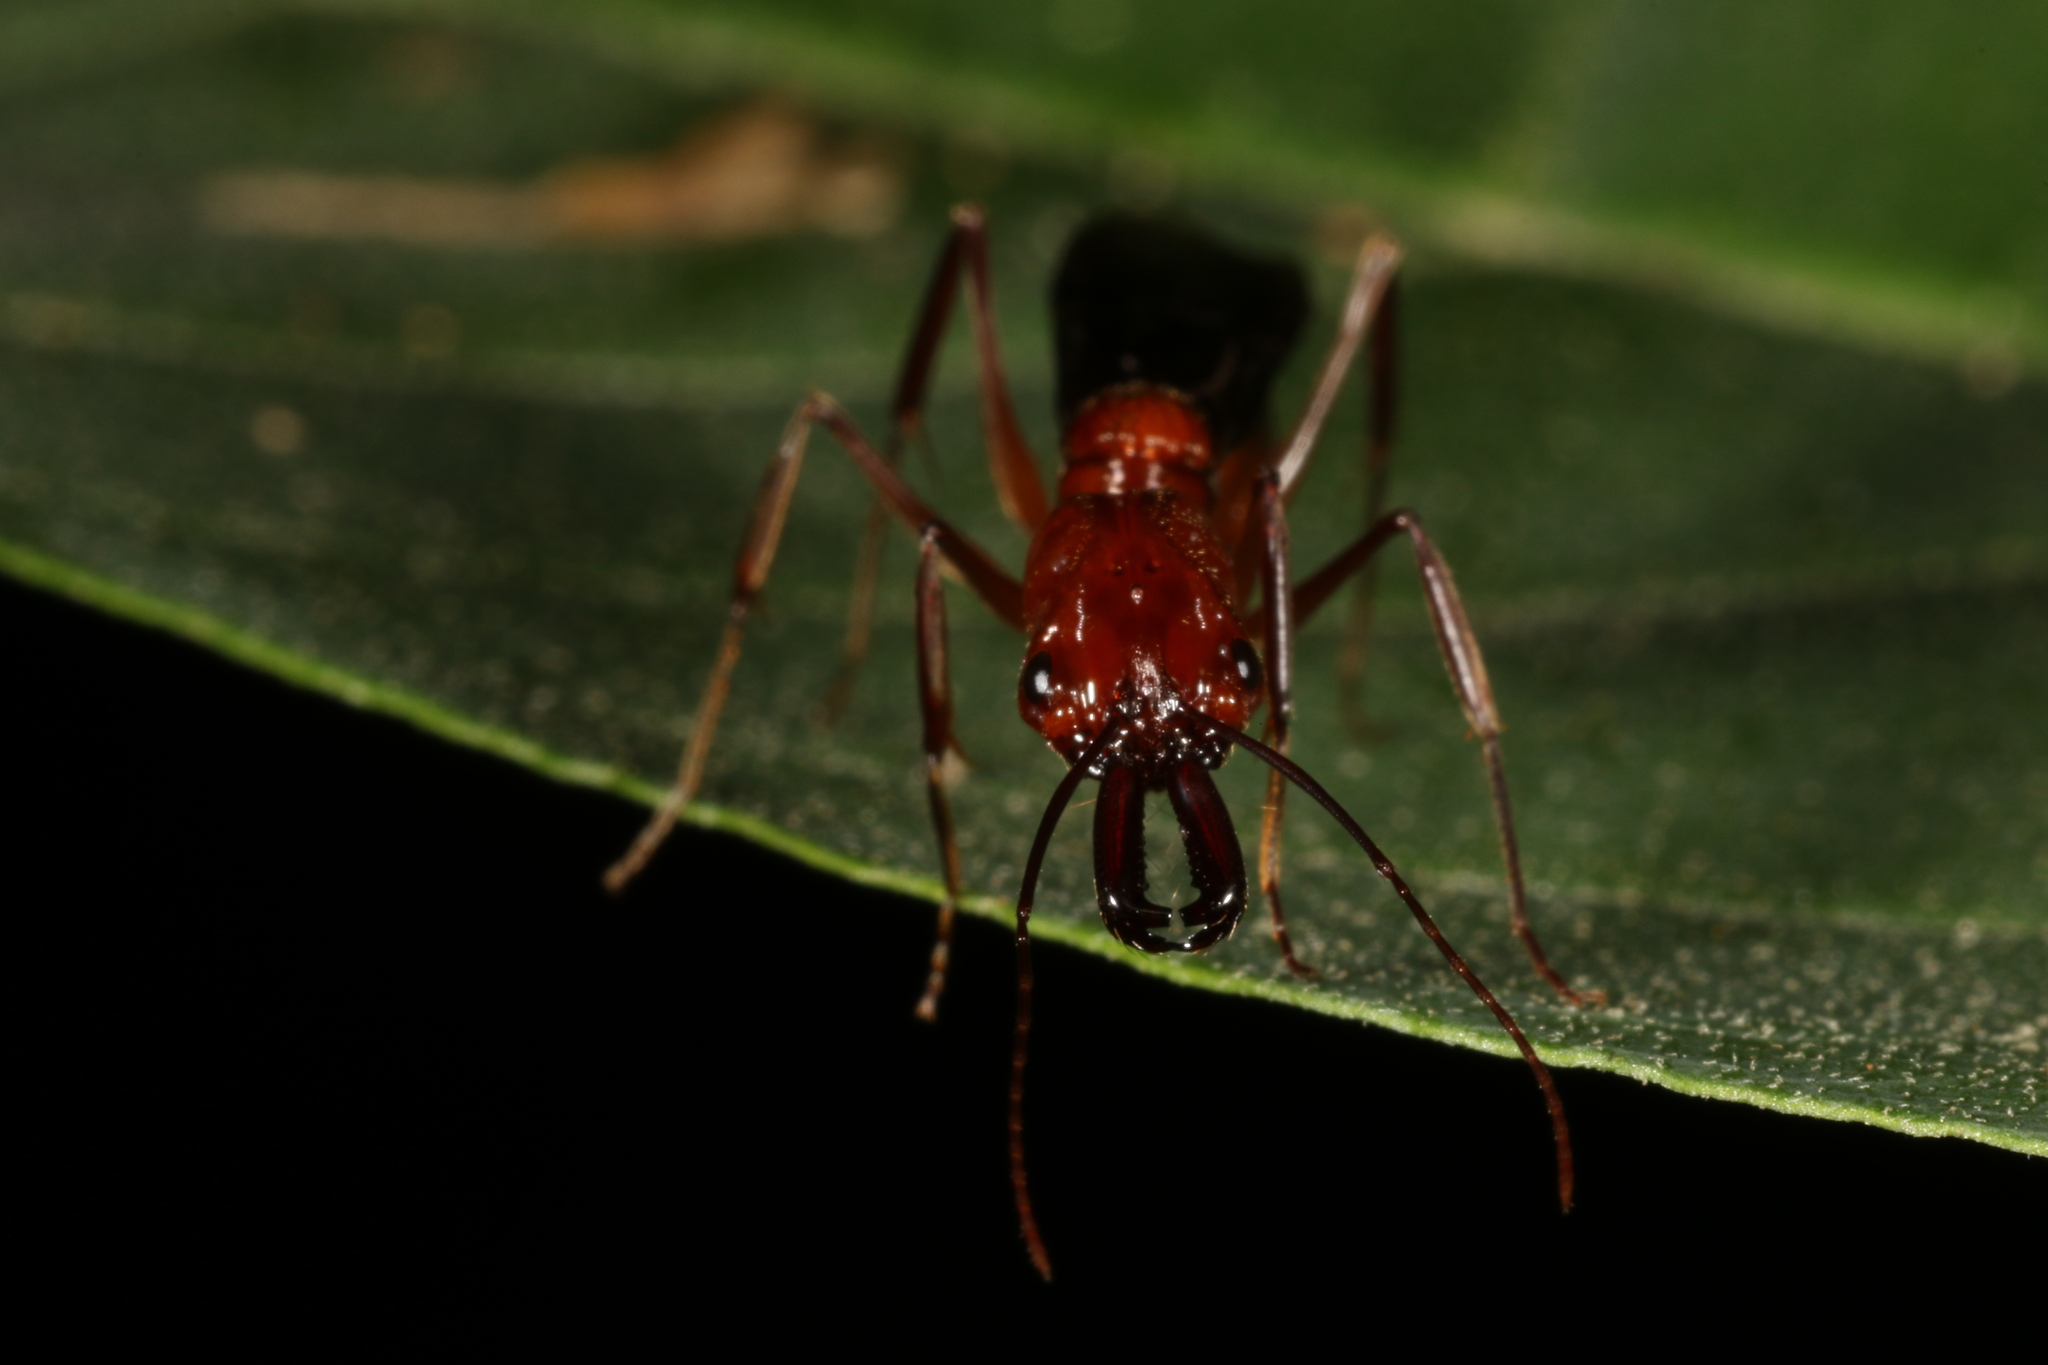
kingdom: Animalia
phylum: Arthropoda
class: Insecta
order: Hymenoptera
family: Formicidae
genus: Odontomachus
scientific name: Odontomachus affinis
